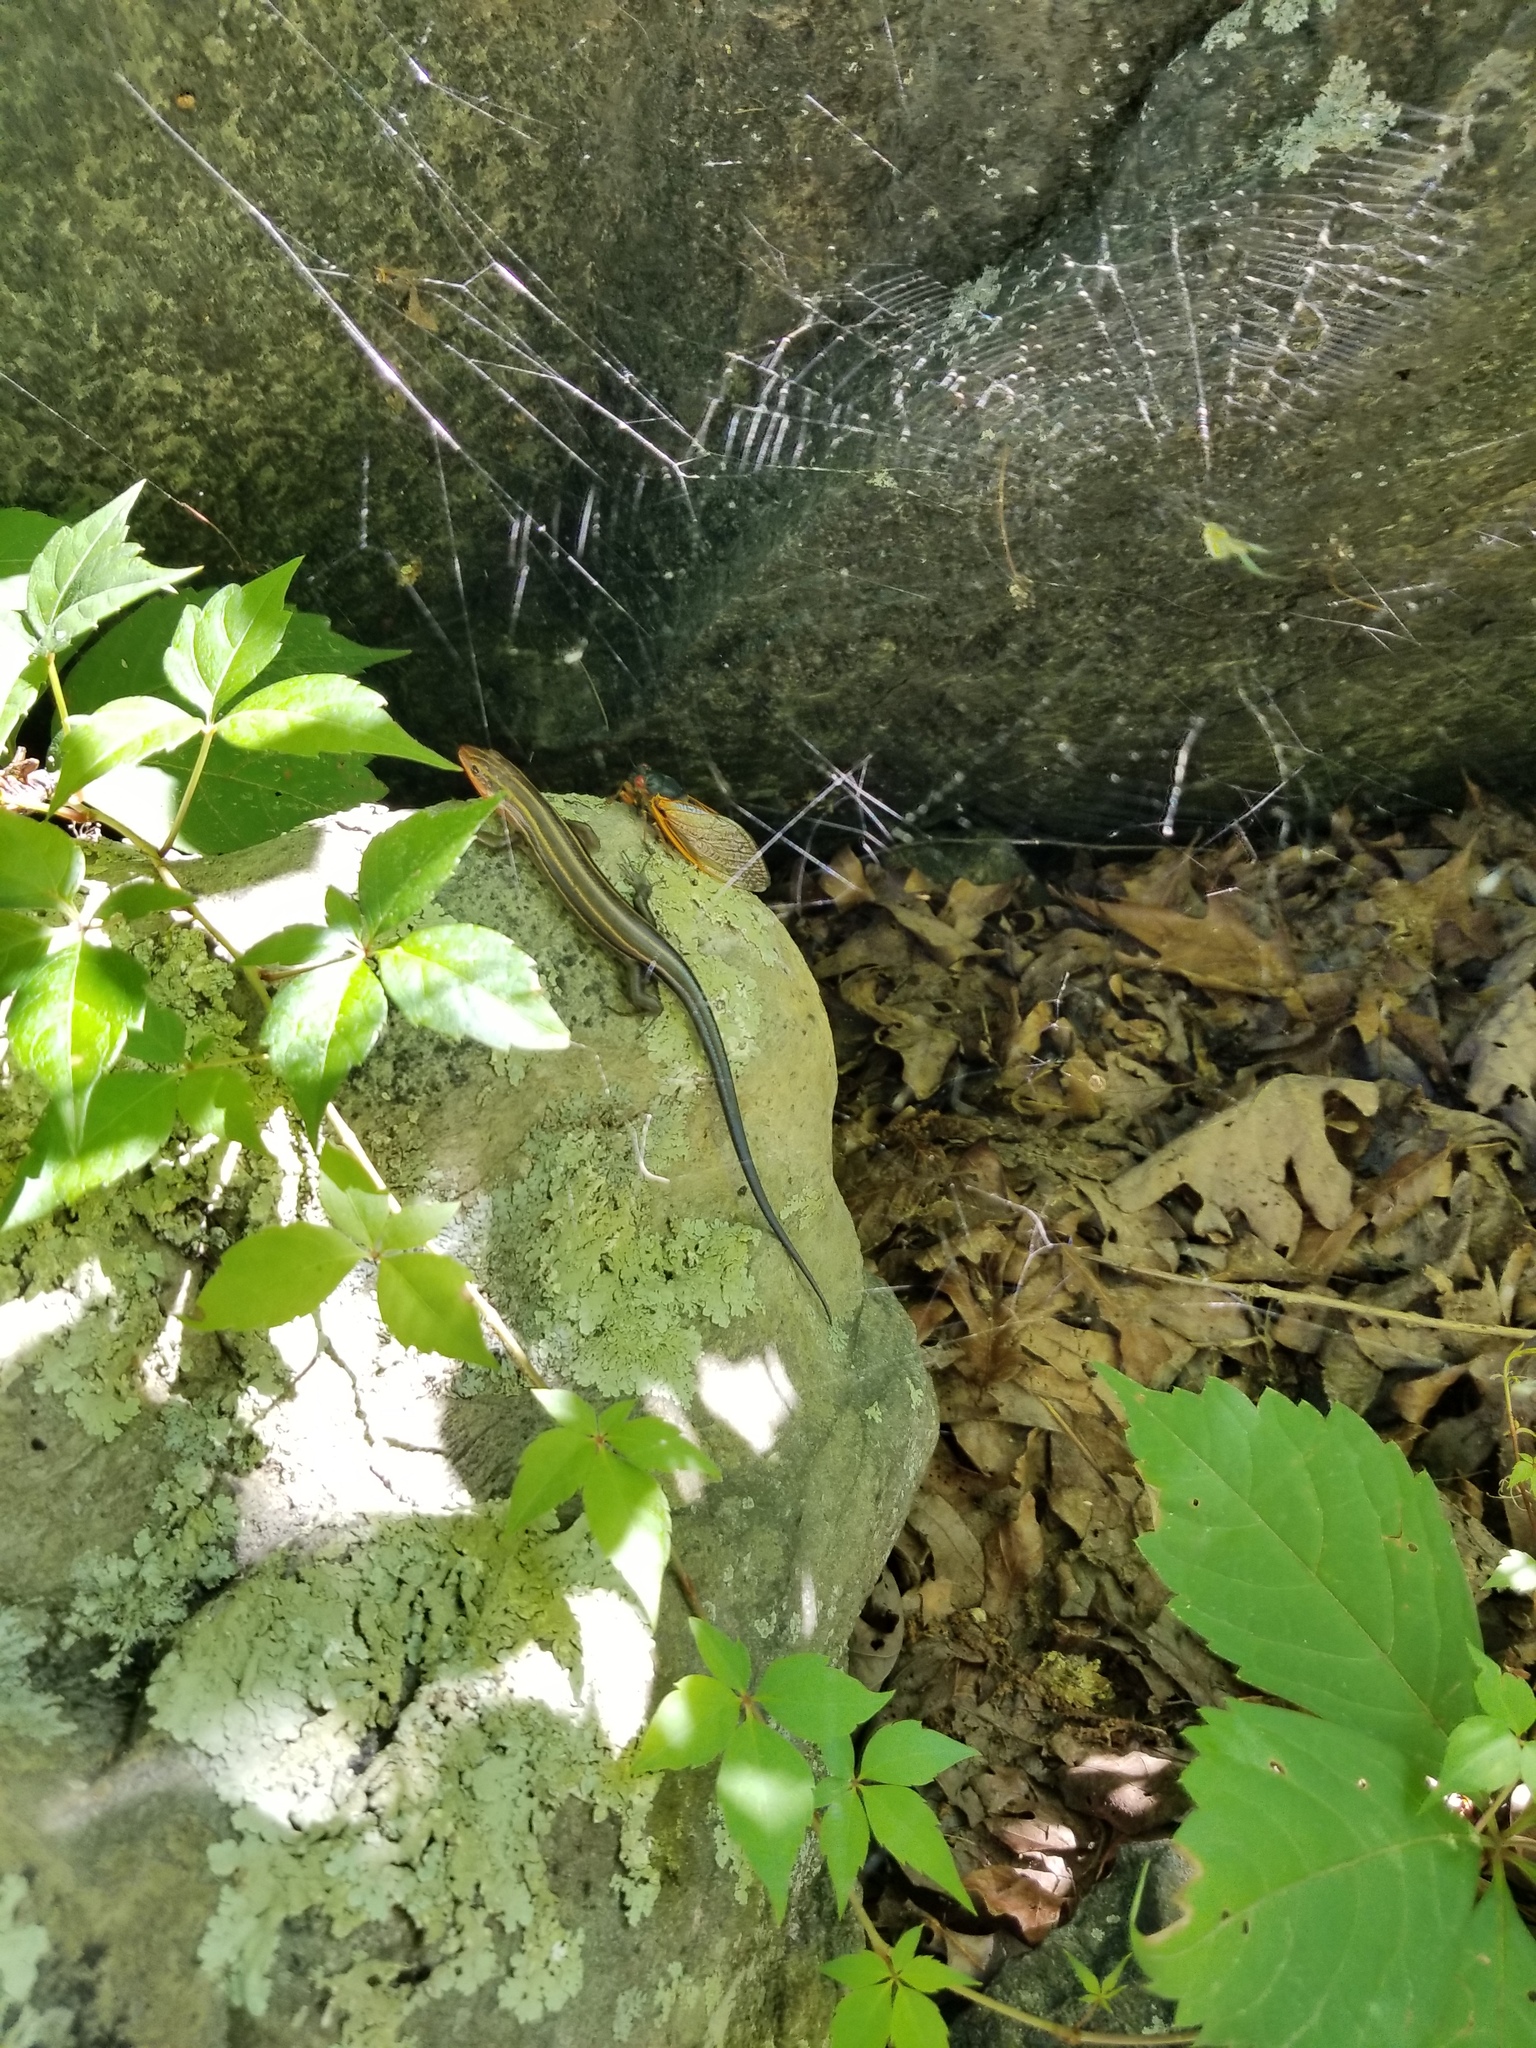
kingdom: Animalia
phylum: Chordata
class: Squamata
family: Scincidae
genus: Plestiodon
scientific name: Plestiodon fasciatus
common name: Five-lined skink
